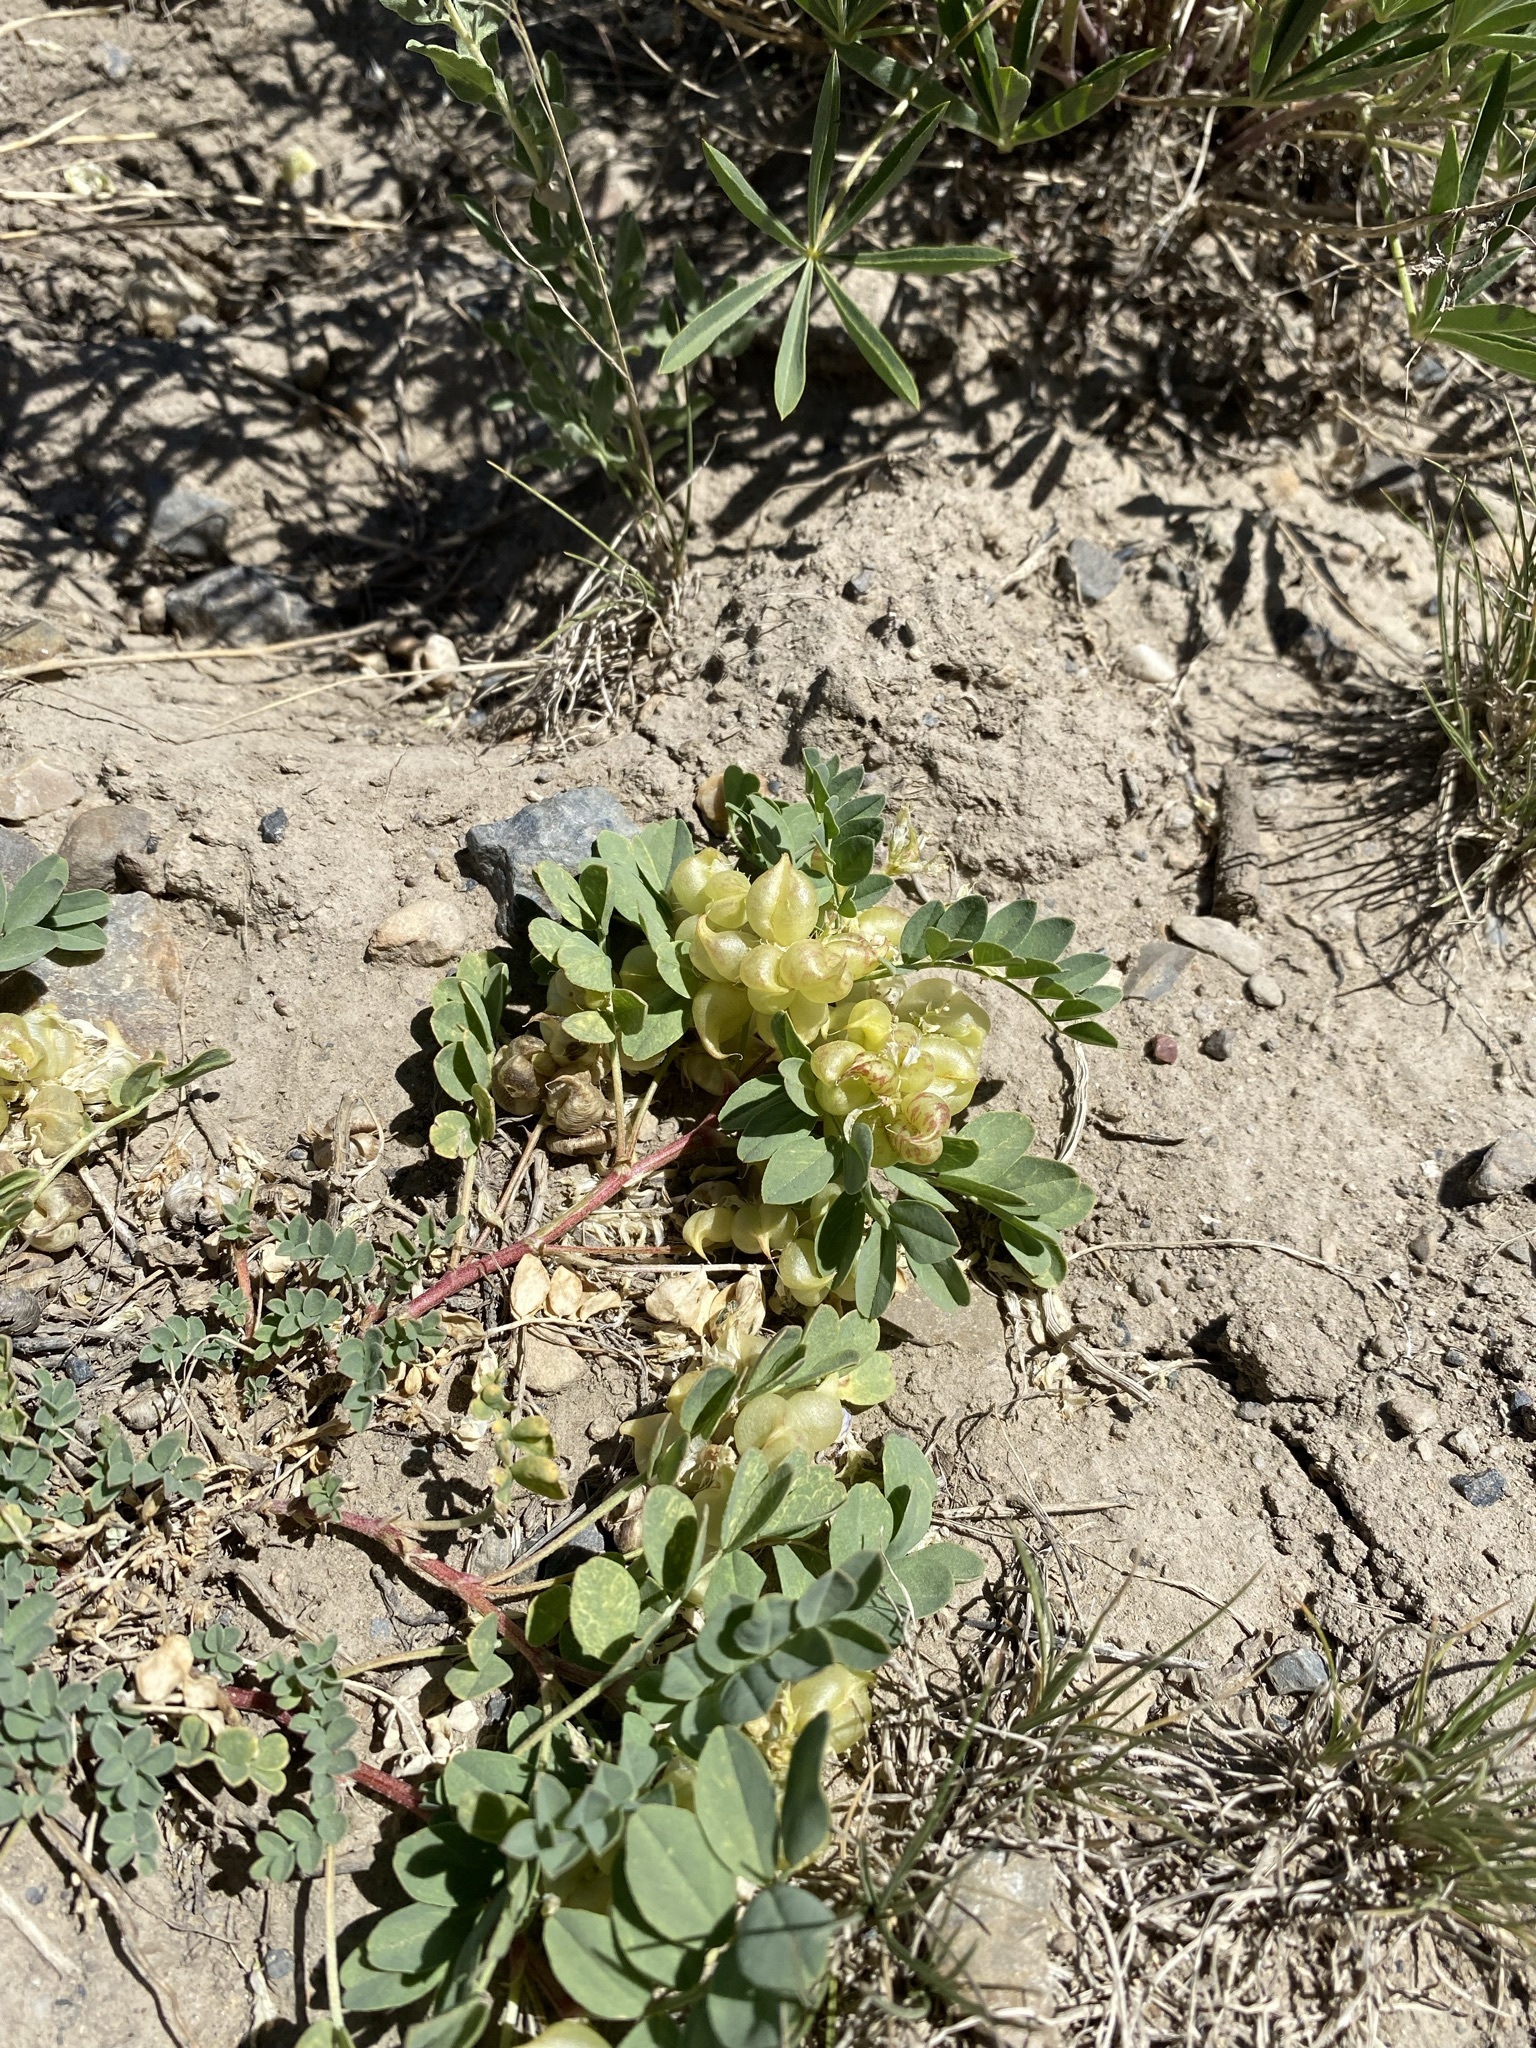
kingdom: Plantae
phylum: Tracheophyta
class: Magnoliopsida
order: Fabales
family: Fabaceae
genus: Astragalus
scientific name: Astragalus lentiginosus
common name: Freckled milkvetch
